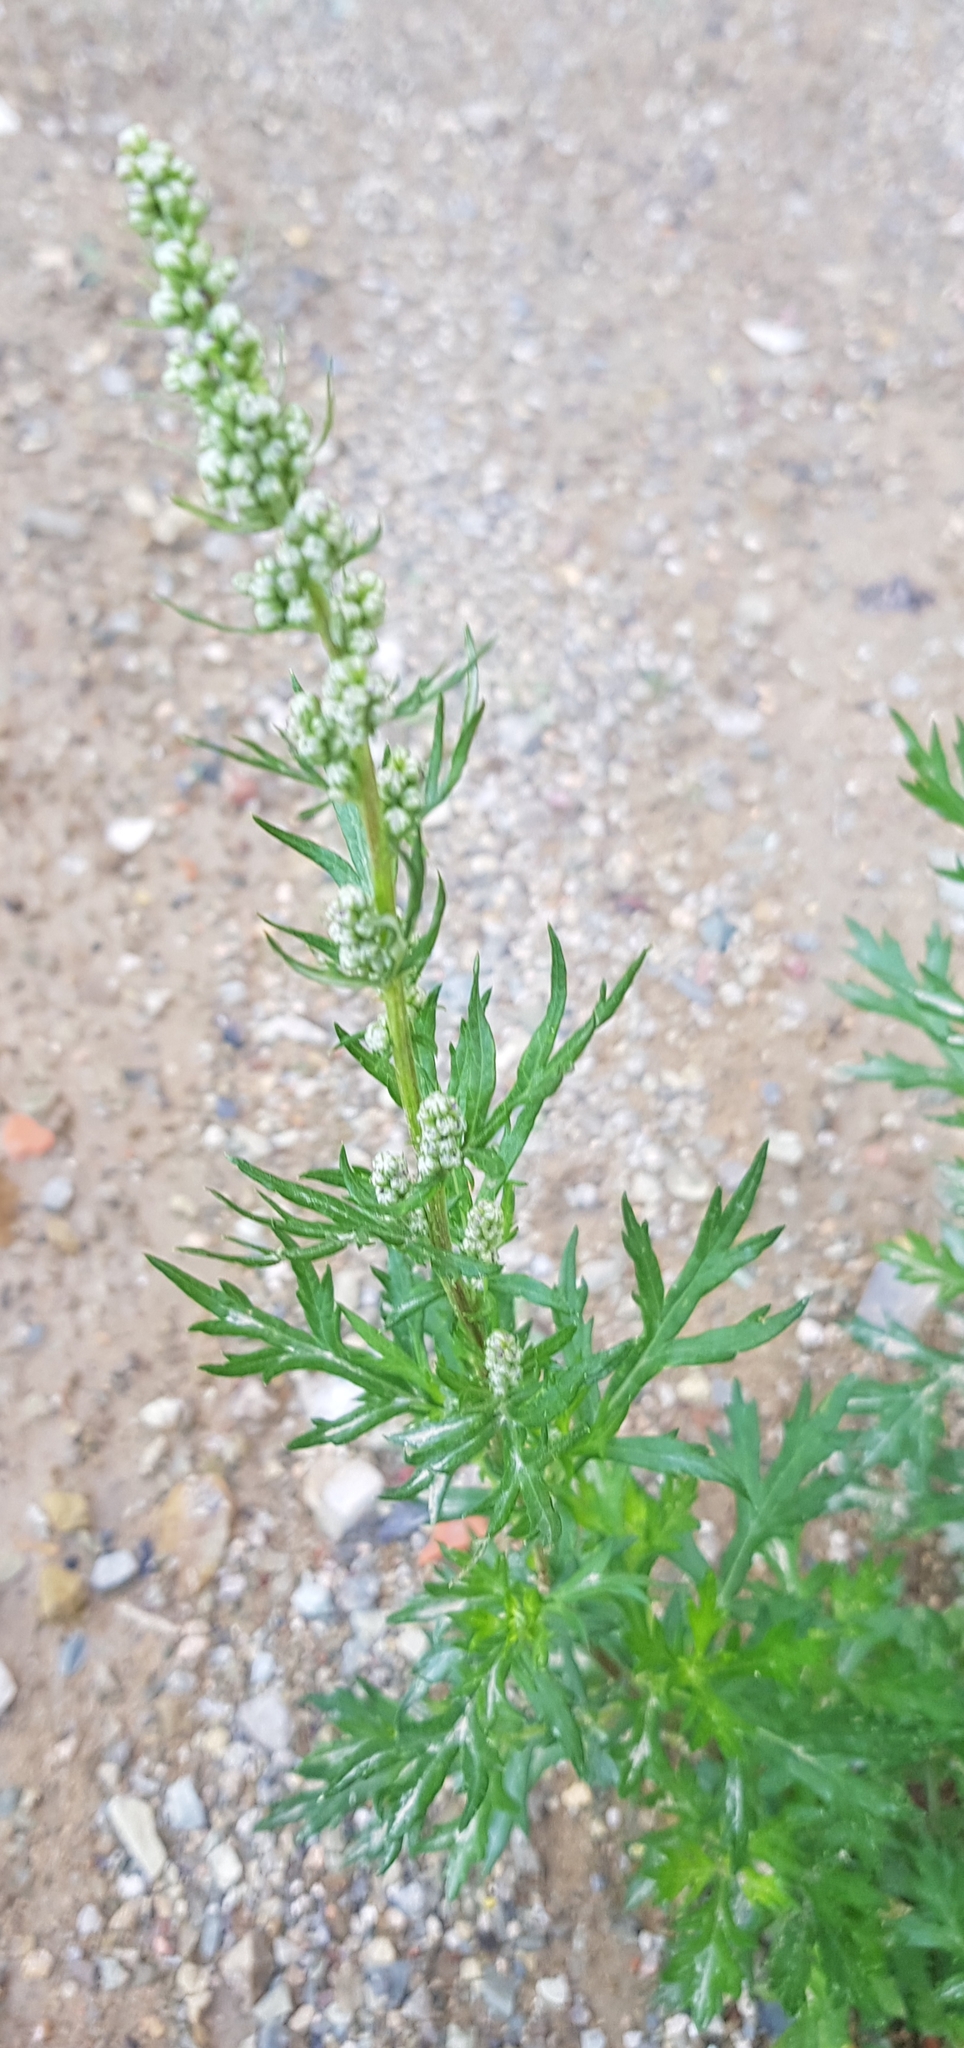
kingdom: Plantae
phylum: Tracheophyta
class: Magnoliopsida
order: Asterales
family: Asteraceae
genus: Artemisia
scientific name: Artemisia vulgaris
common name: Mugwort
